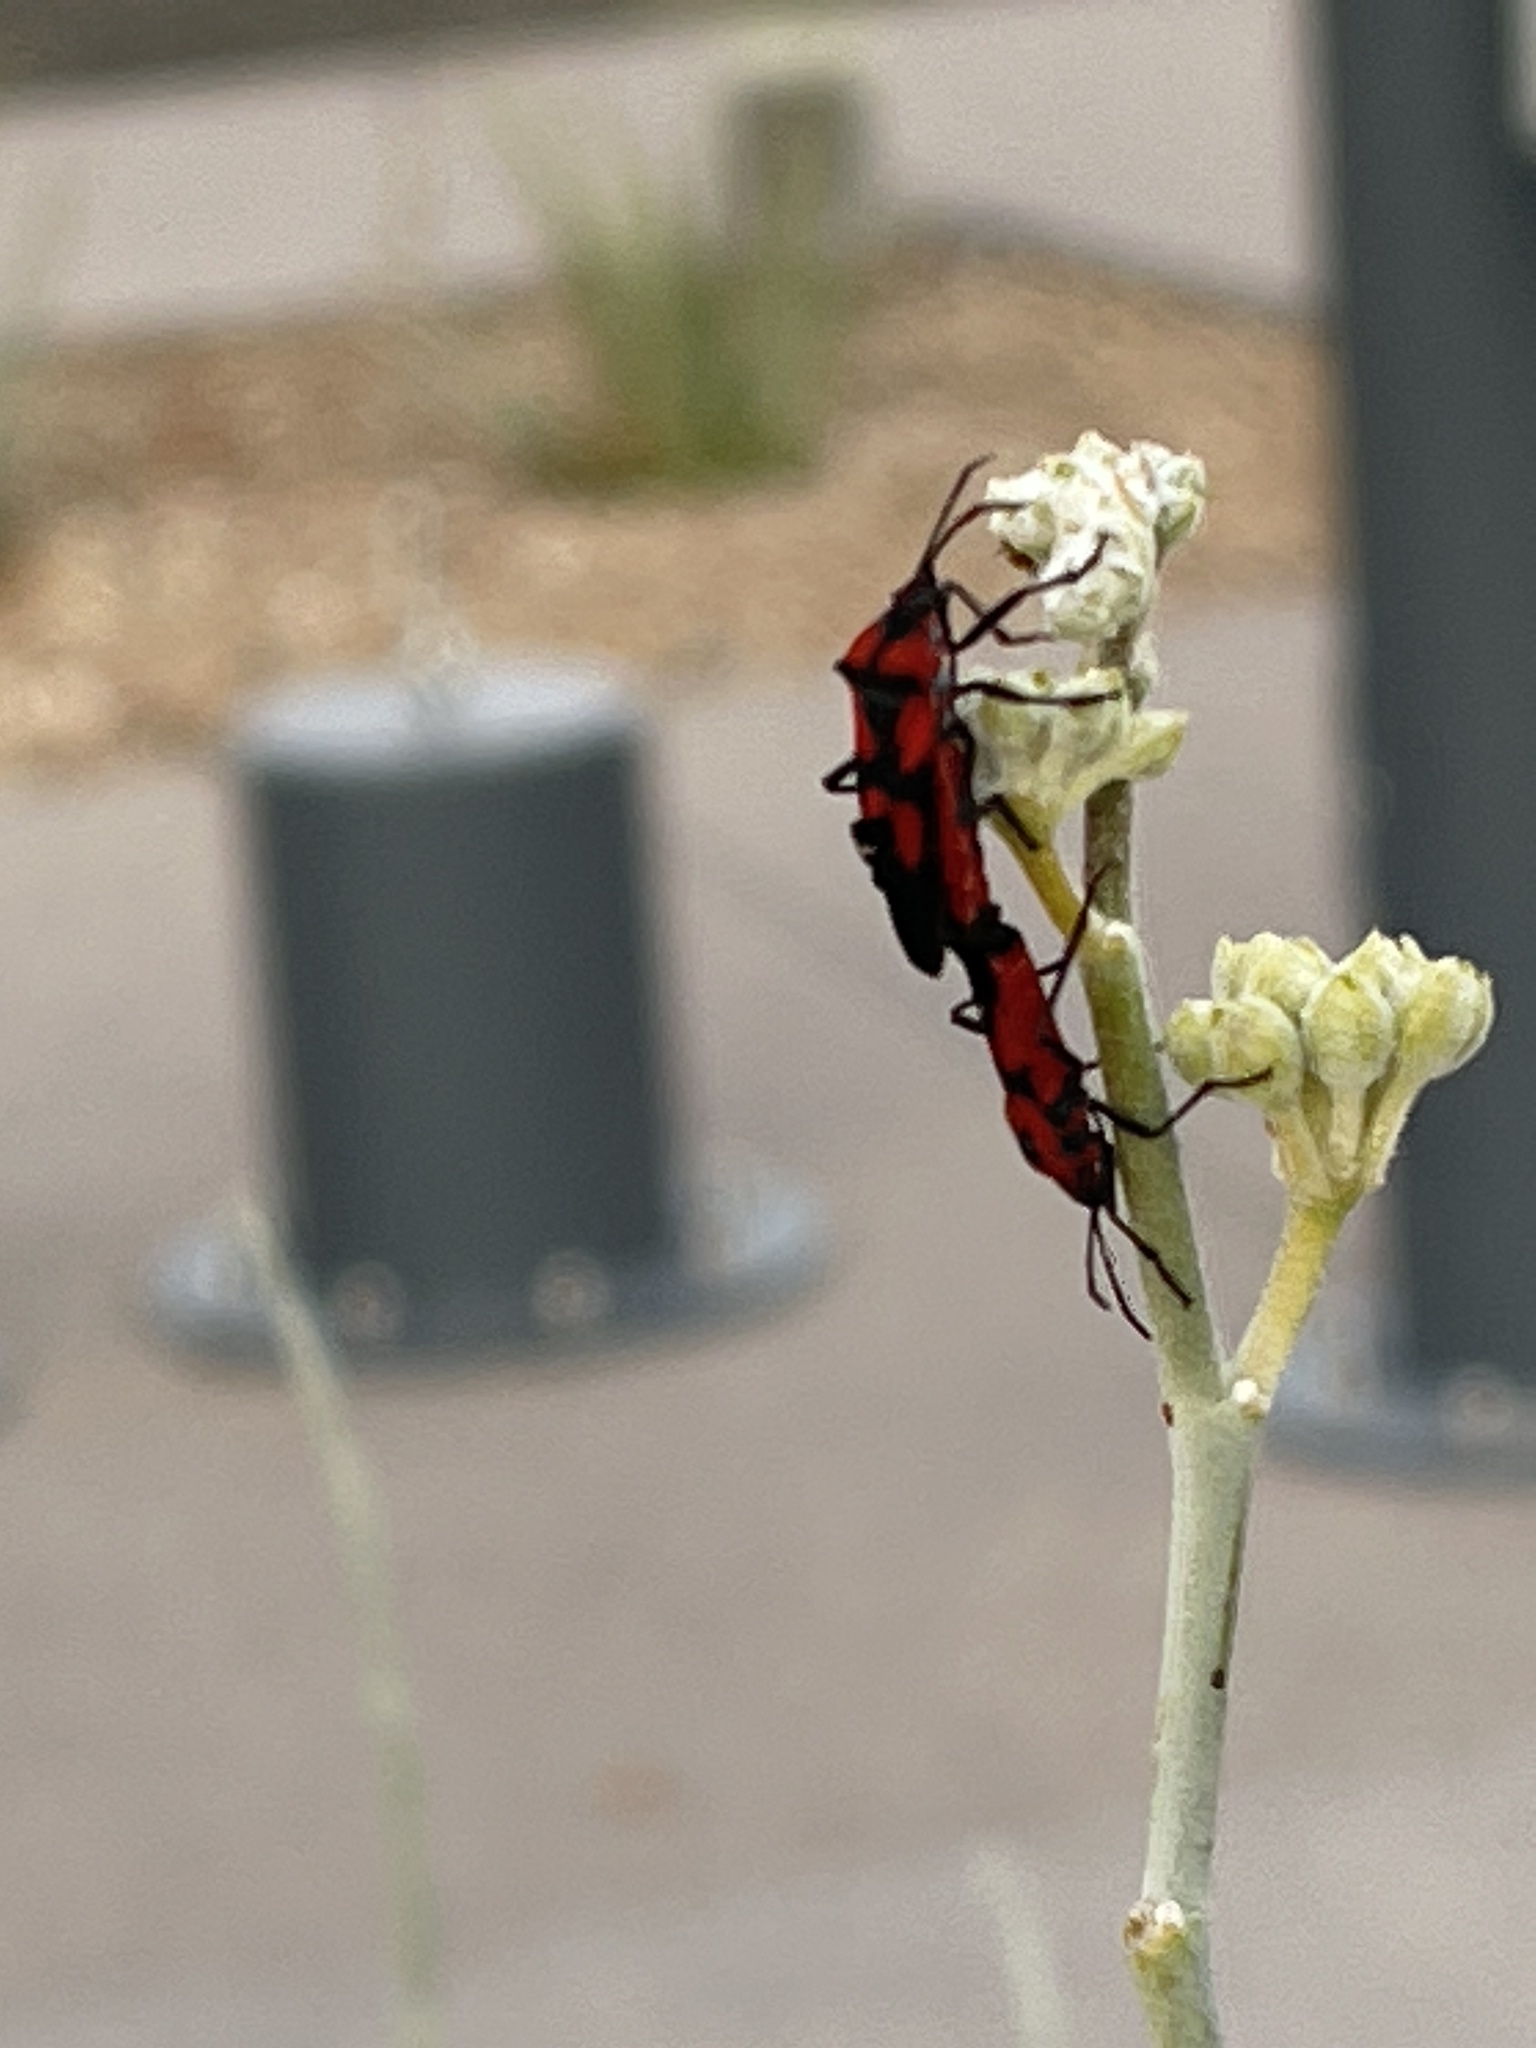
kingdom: Animalia
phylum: Arthropoda
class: Insecta
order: Hemiptera
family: Lygaeidae
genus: Oncopeltus
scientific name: Oncopeltus sanguinolentus
